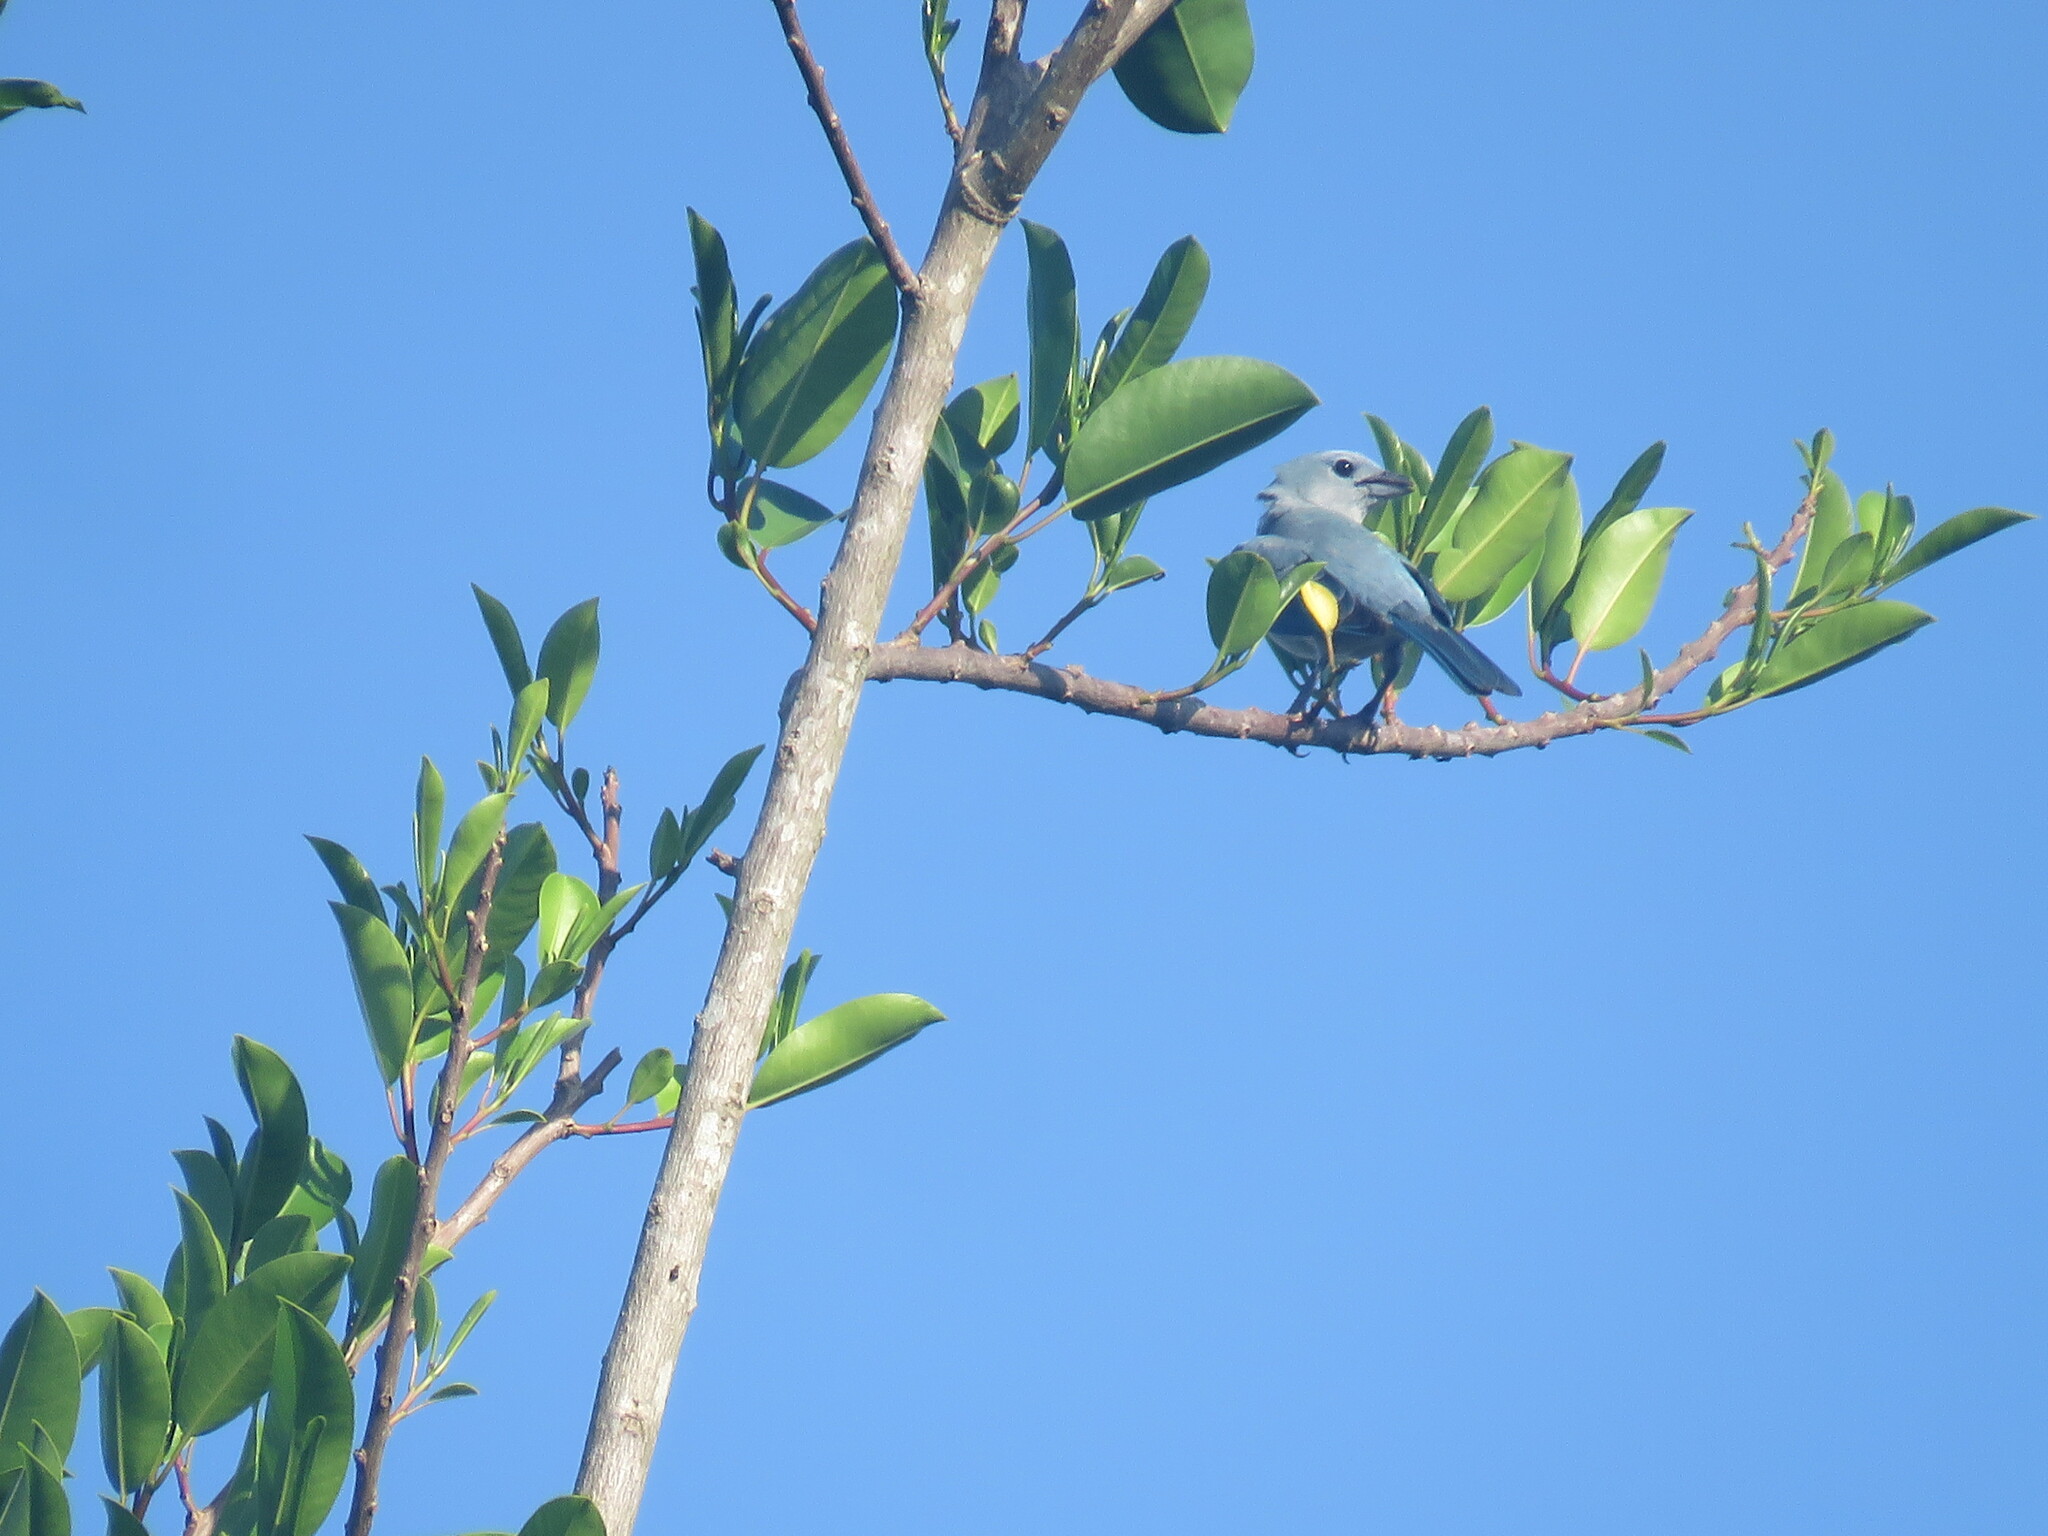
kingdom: Animalia
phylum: Chordata
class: Aves
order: Passeriformes
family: Thraupidae
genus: Thraupis
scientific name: Thraupis episcopus
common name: Blue-grey tanager
